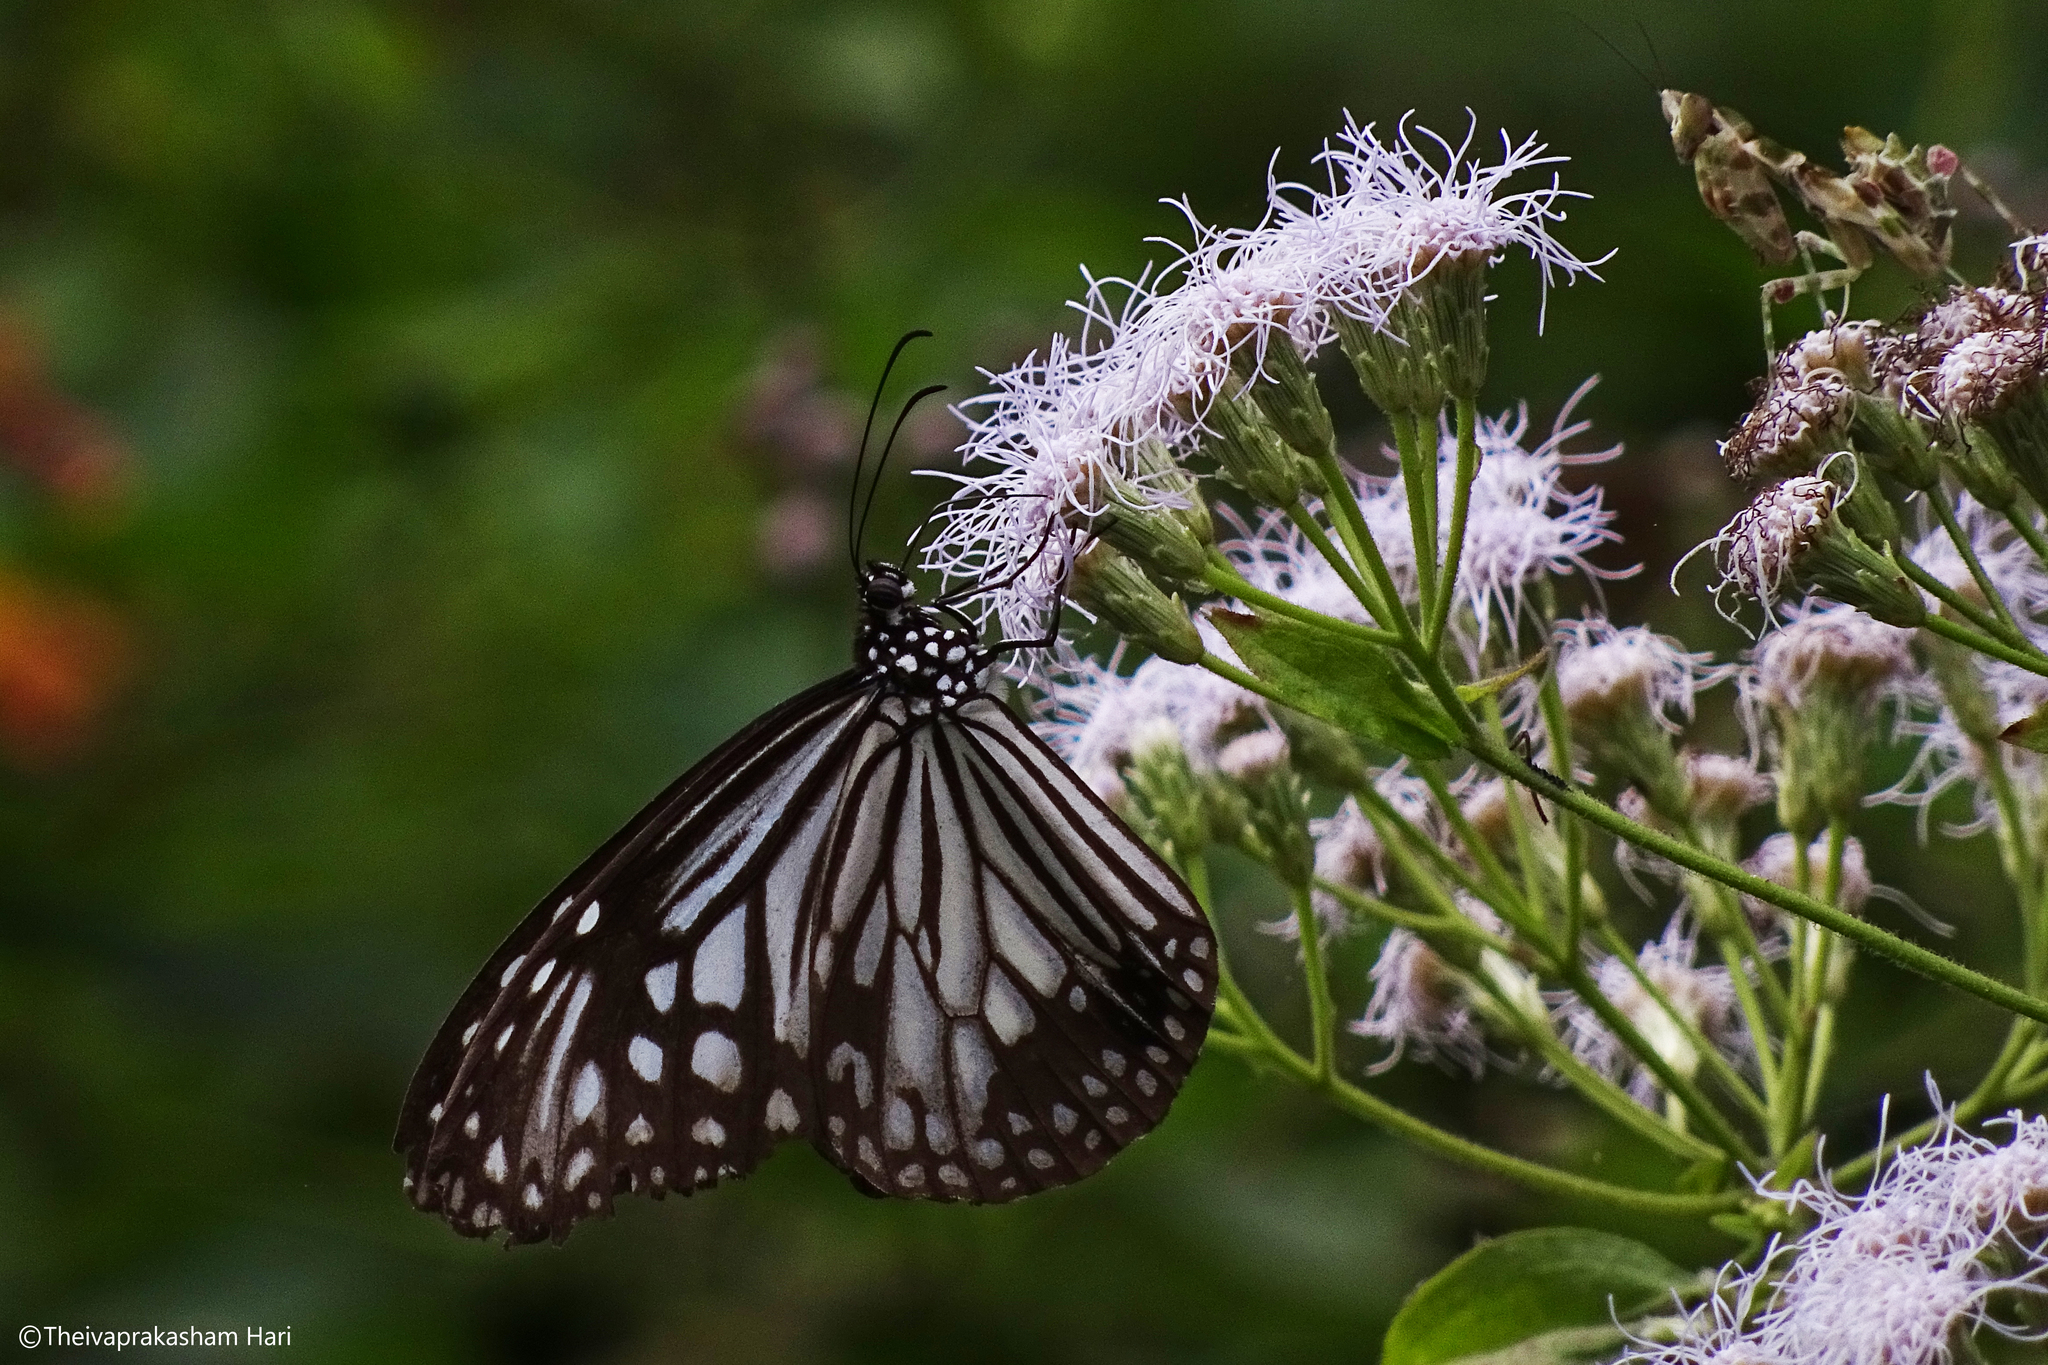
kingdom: Animalia
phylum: Arthropoda
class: Insecta
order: Lepidoptera
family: Nymphalidae
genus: Parantica
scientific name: Parantica aglea
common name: Glassy tiger
